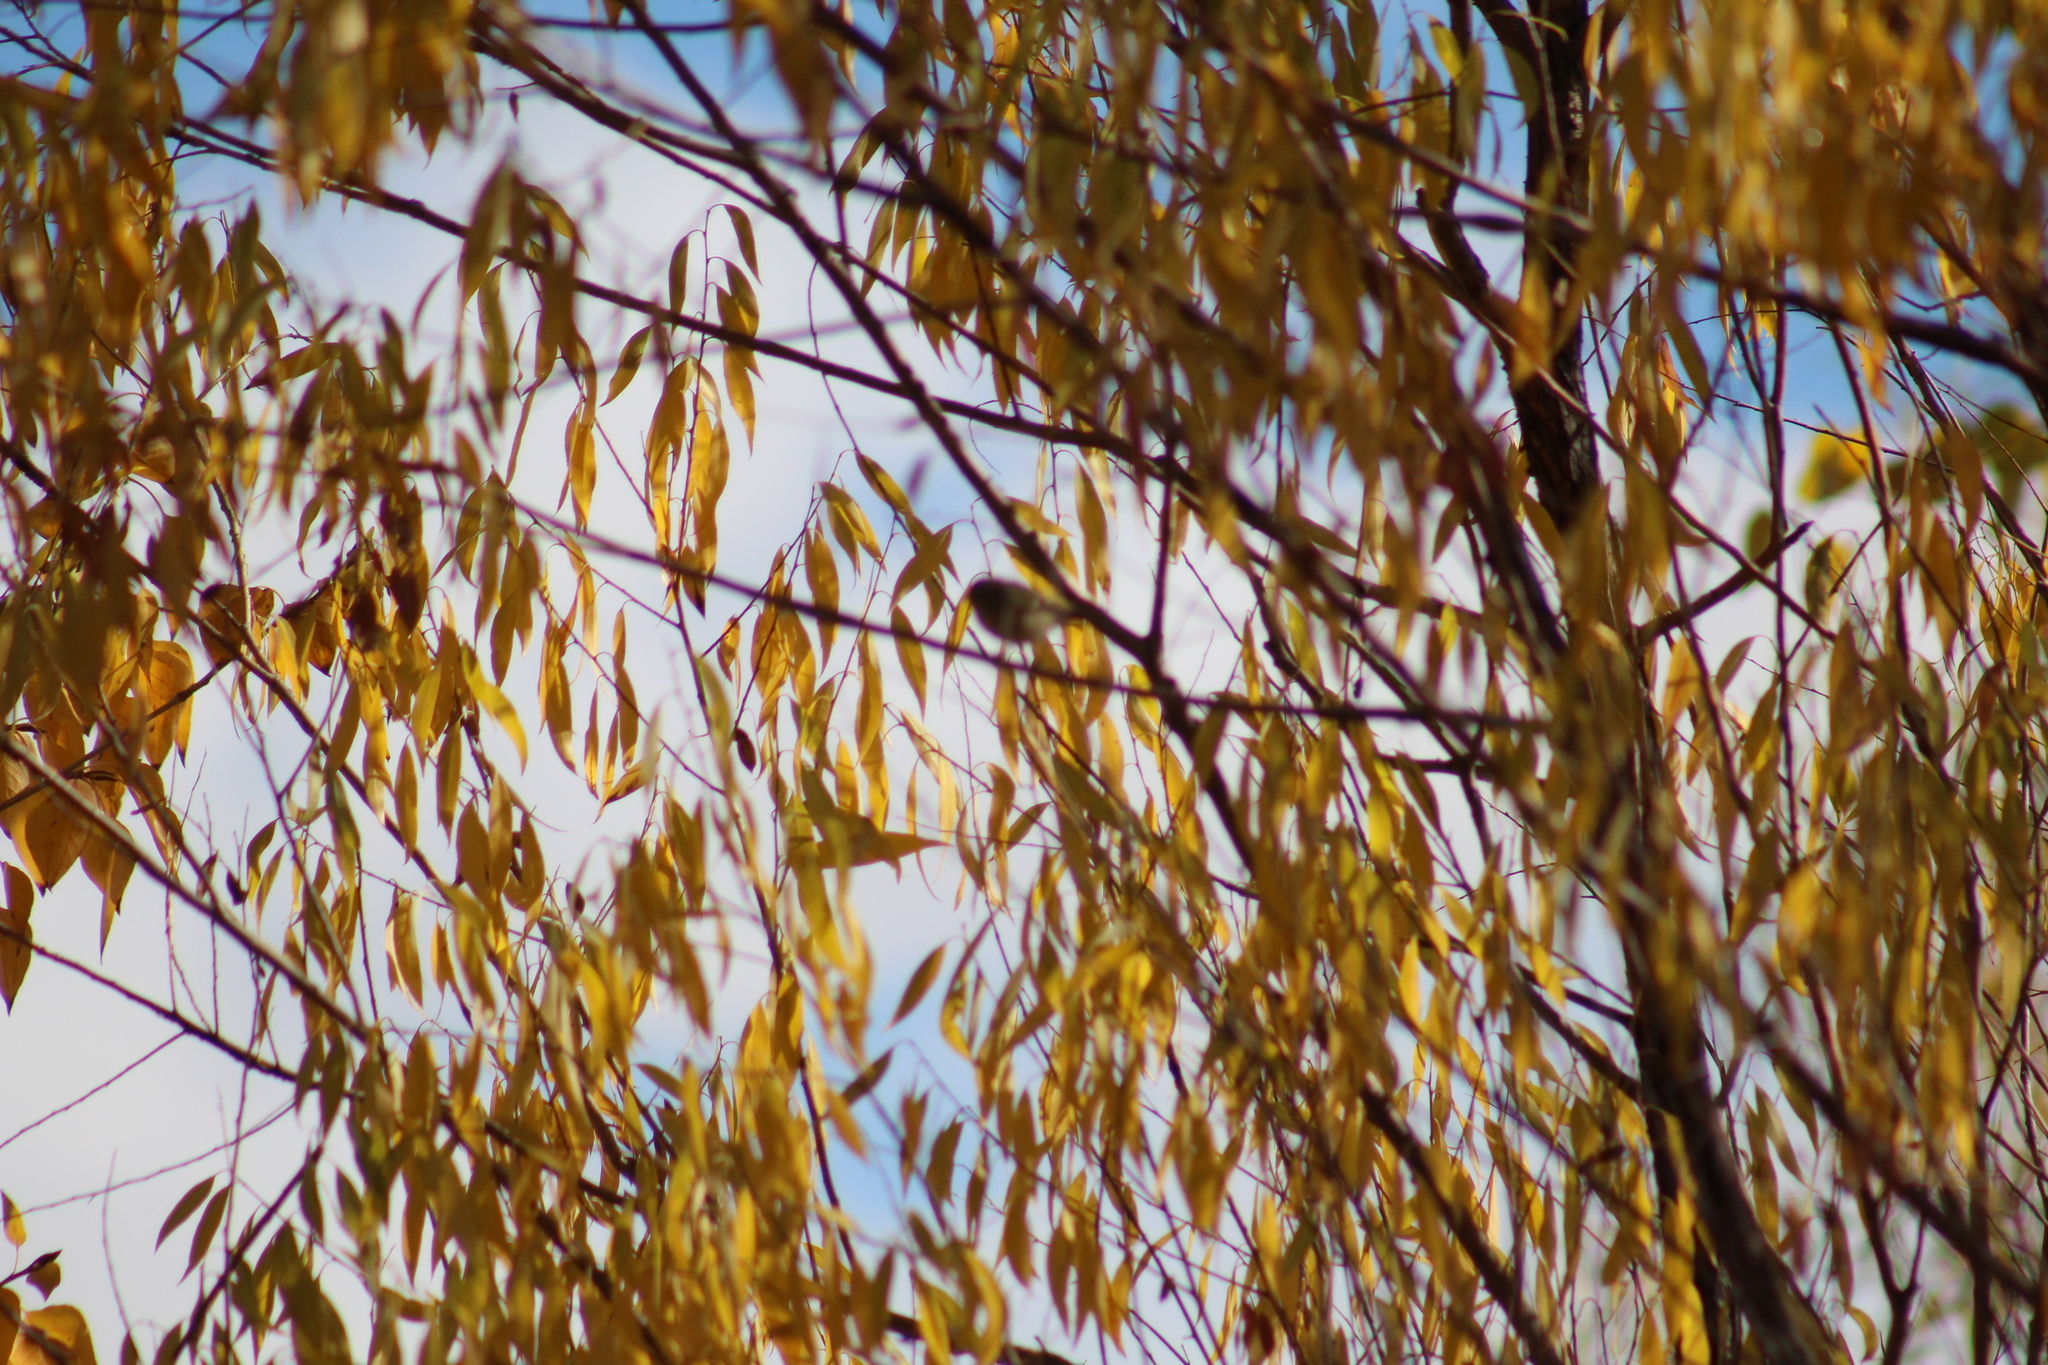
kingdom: Animalia
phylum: Chordata
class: Aves
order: Passeriformes
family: Regulidae
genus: Regulus
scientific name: Regulus calendula
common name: Ruby-crowned kinglet
